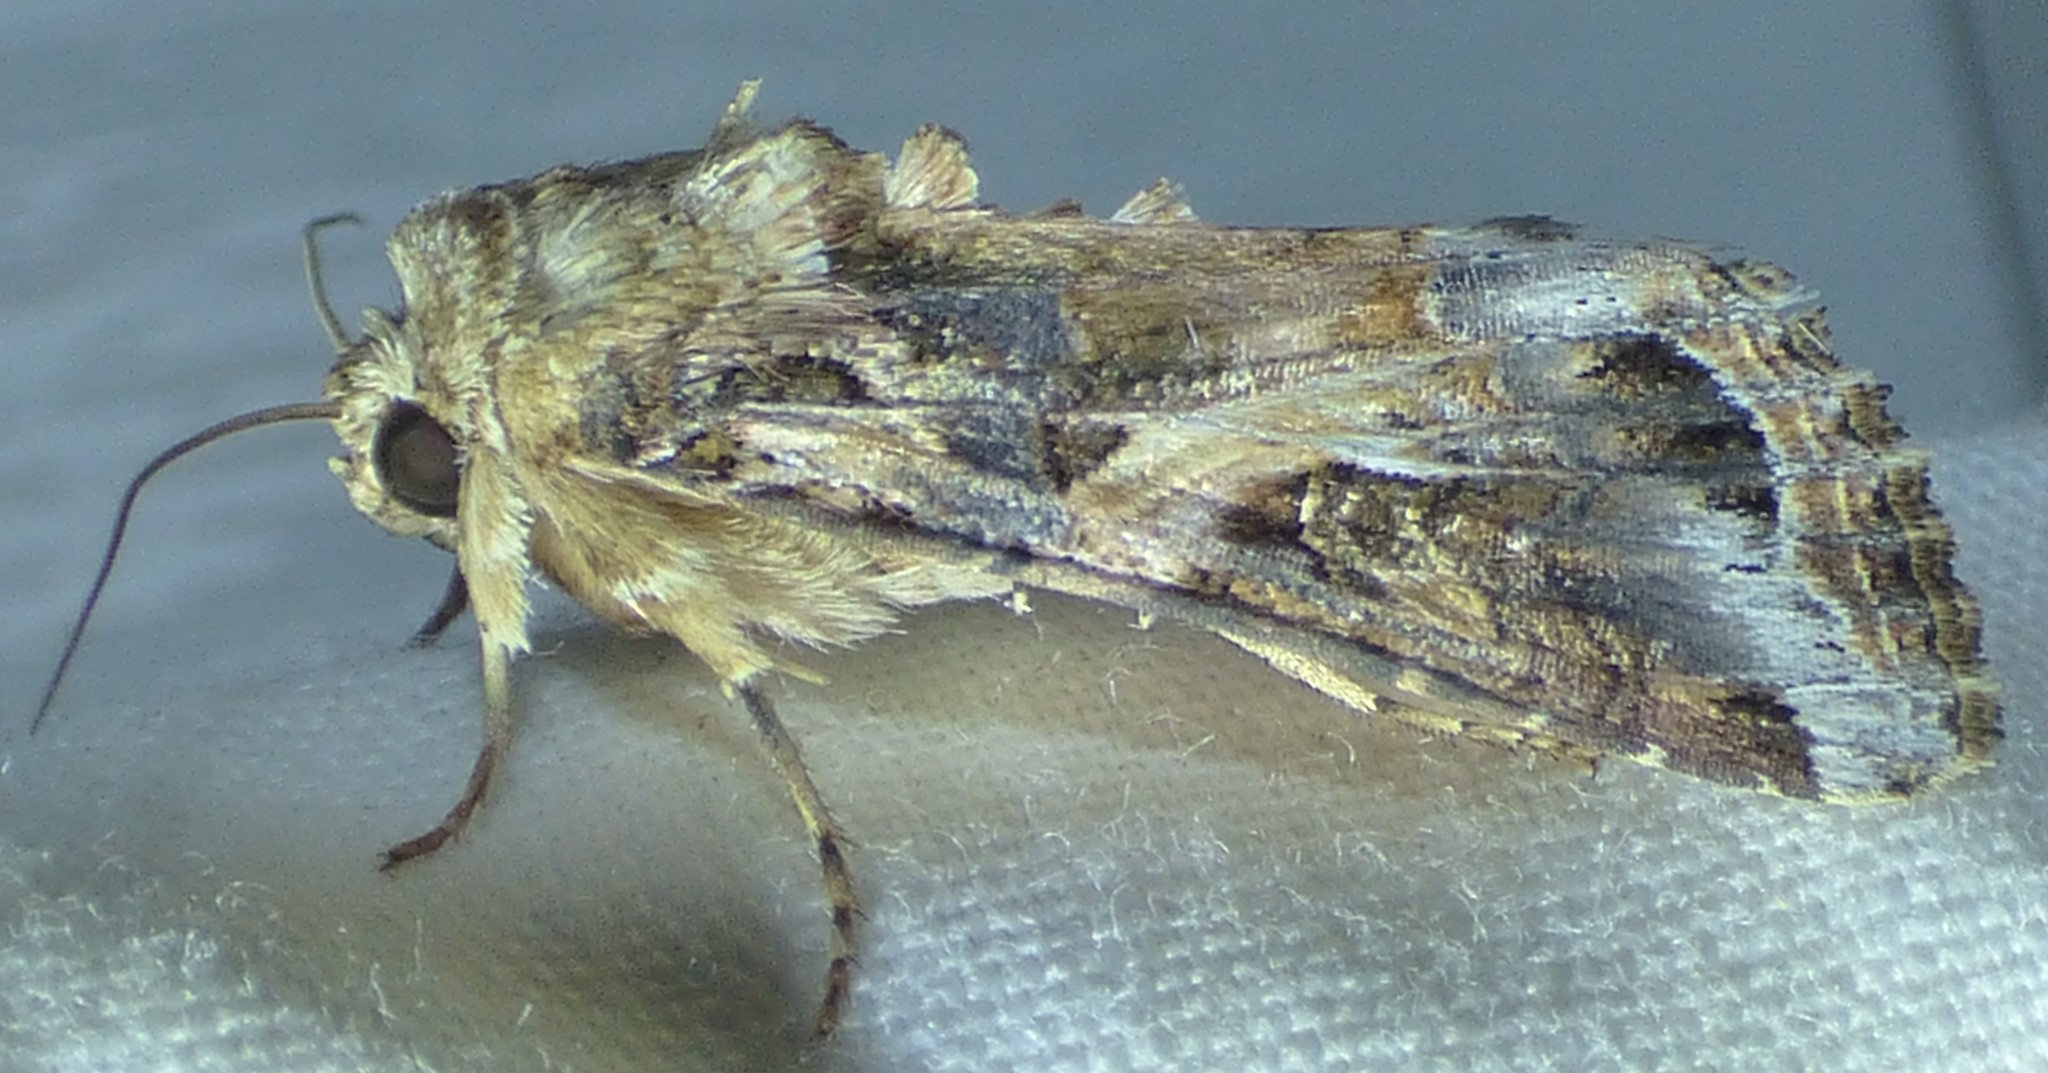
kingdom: Animalia
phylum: Arthropoda
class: Insecta
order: Lepidoptera
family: Noctuidae
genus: Spodoptera
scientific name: Spodoptera ornithogalli
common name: Yellow-striped armyworm
